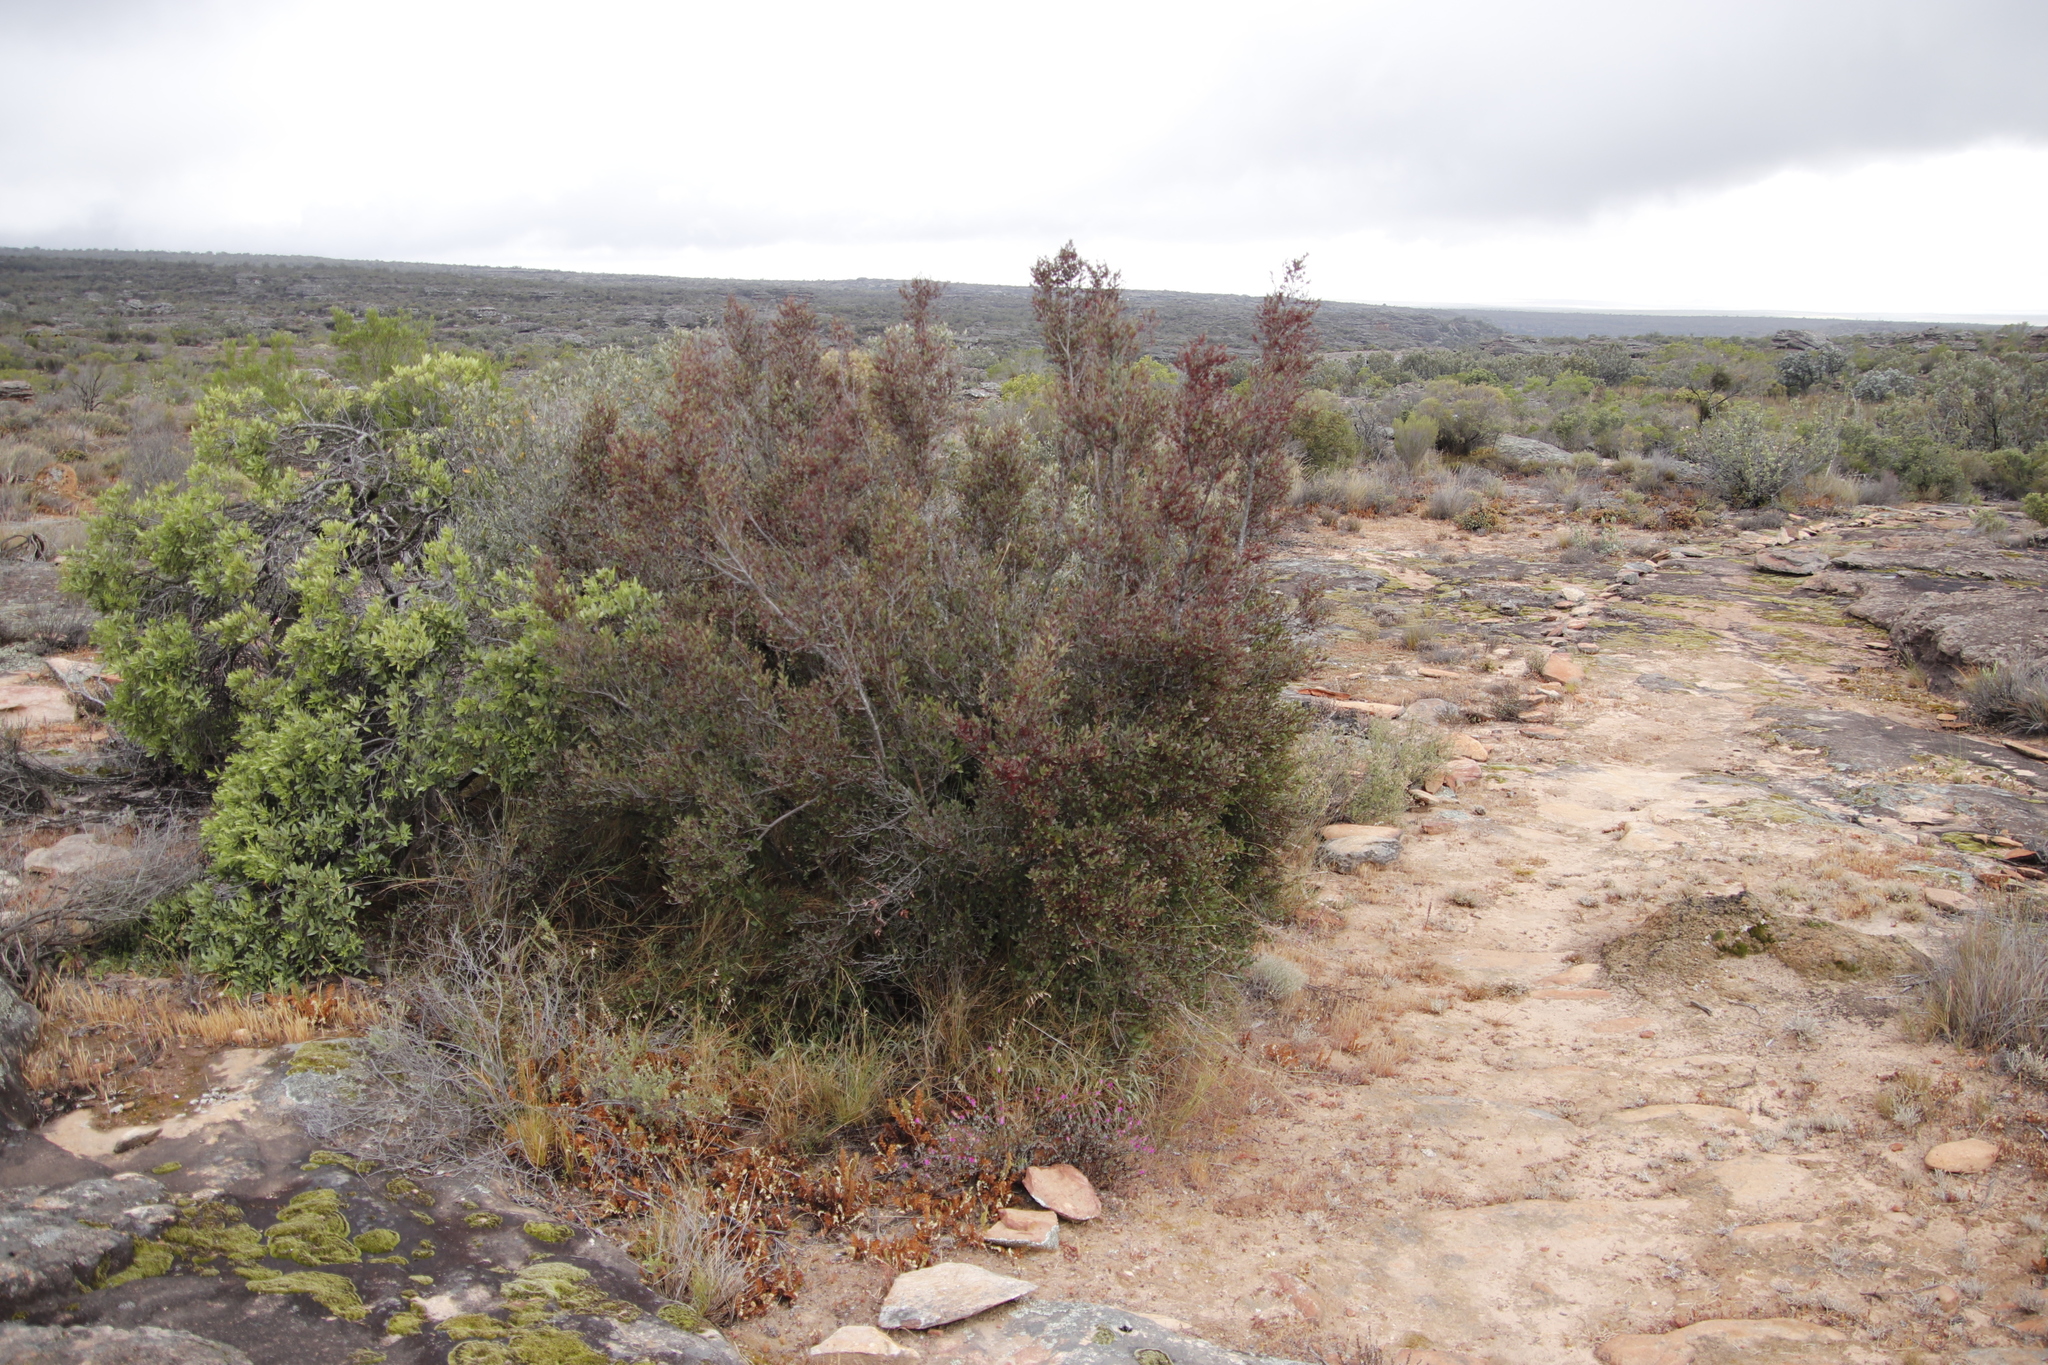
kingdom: Plantae
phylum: Tracheophyta
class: Magnoliopsida
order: Celastrales
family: Celastraceae
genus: Gymnosporia
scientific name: Gymnosporia acuminata
